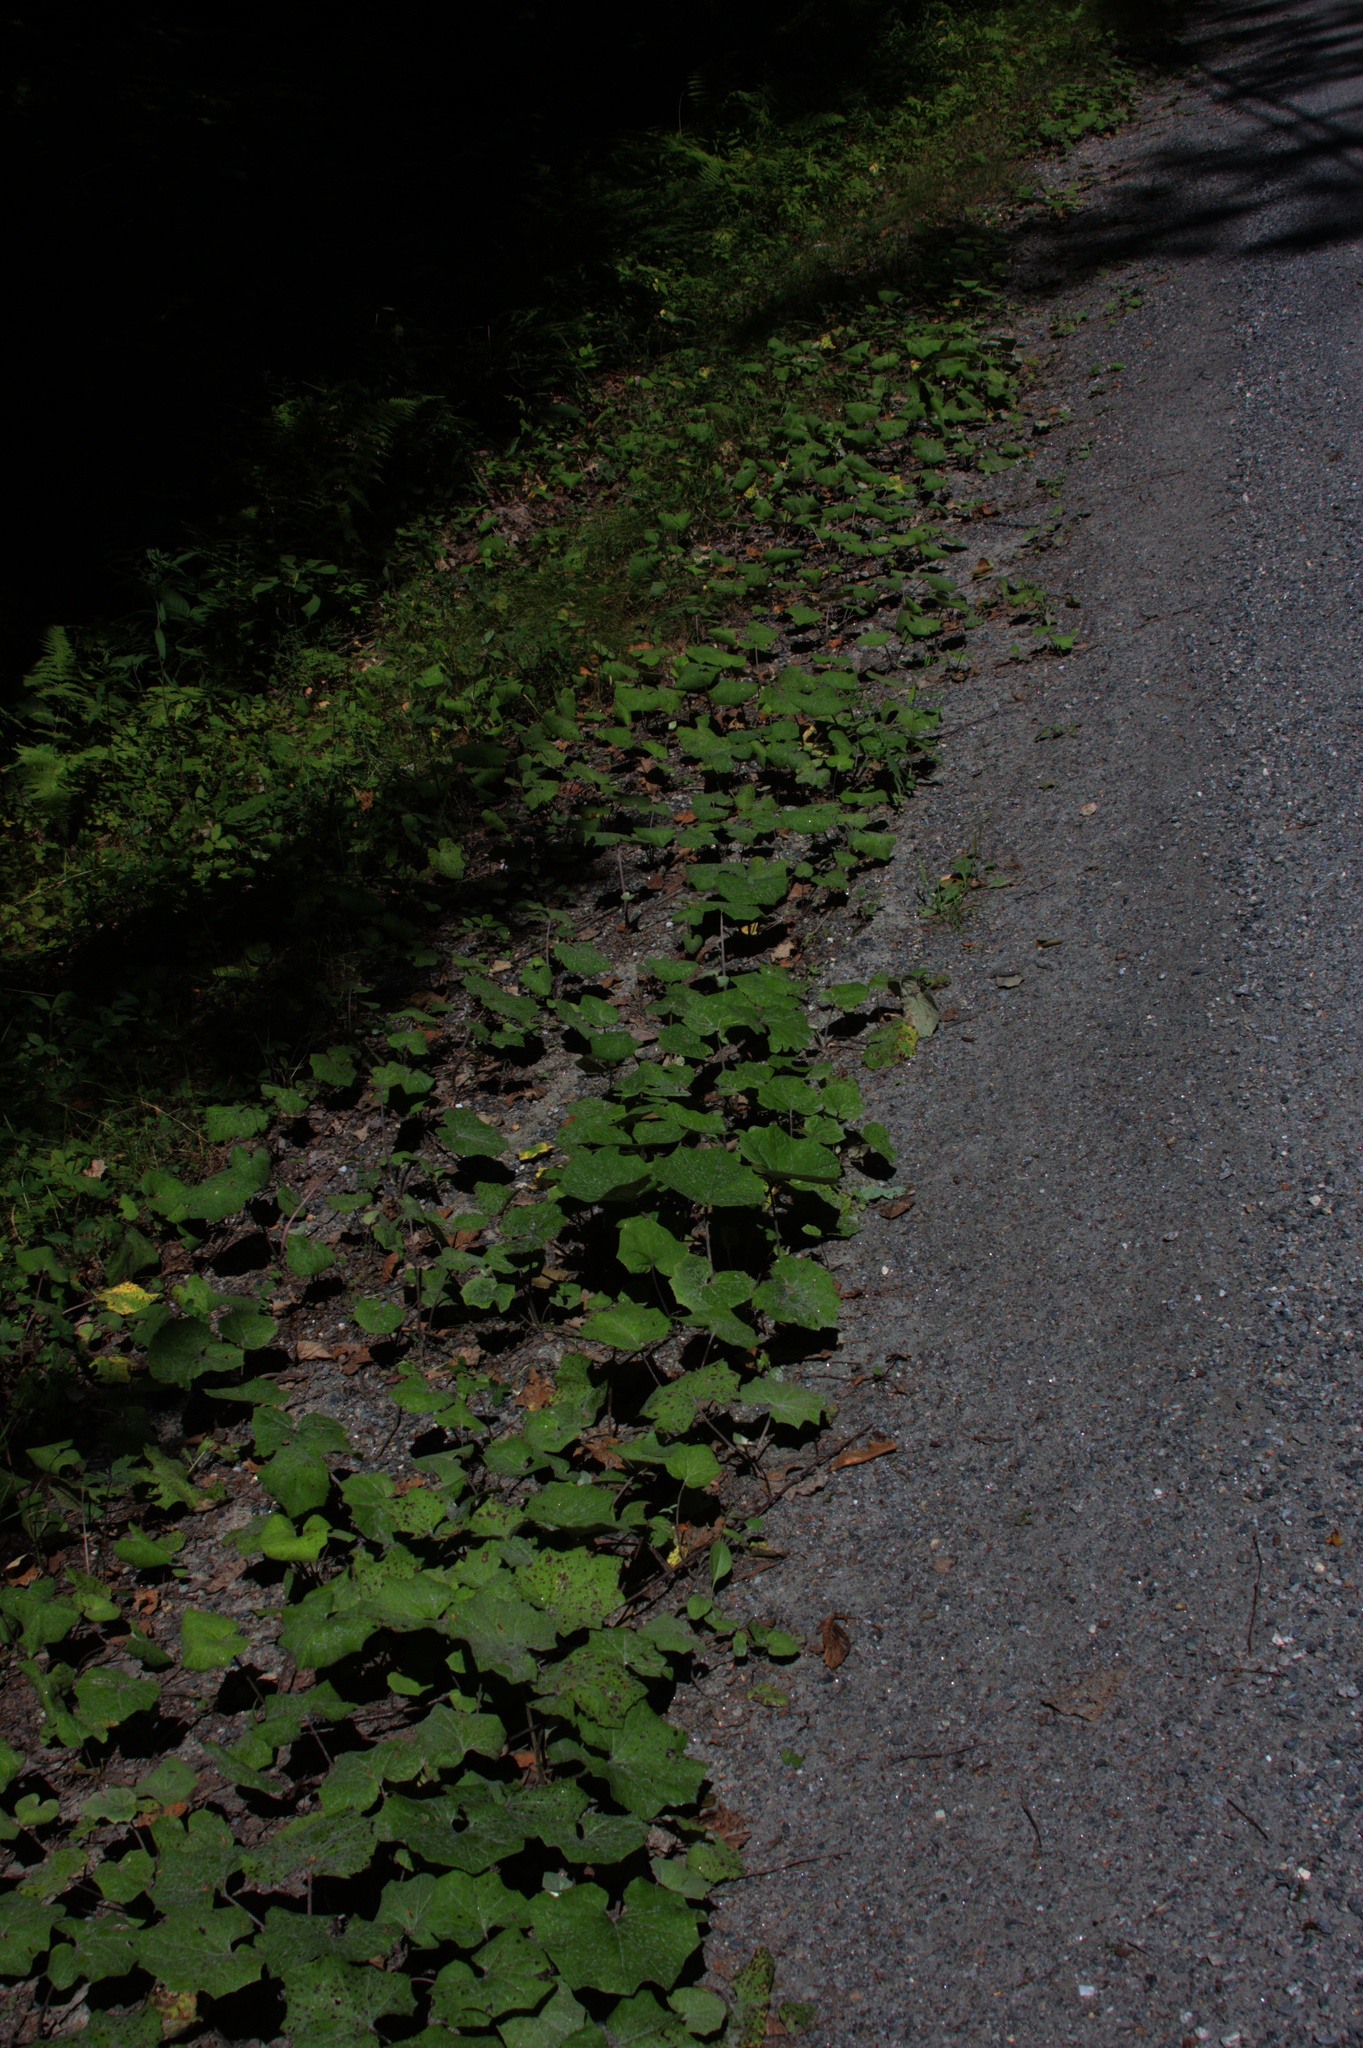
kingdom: Plantae
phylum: Tracheophyta
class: Magnoliopsida
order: Asterales
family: Asteraceae
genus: Tussilago
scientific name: Tussilago farfara
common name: Coltsfoot
